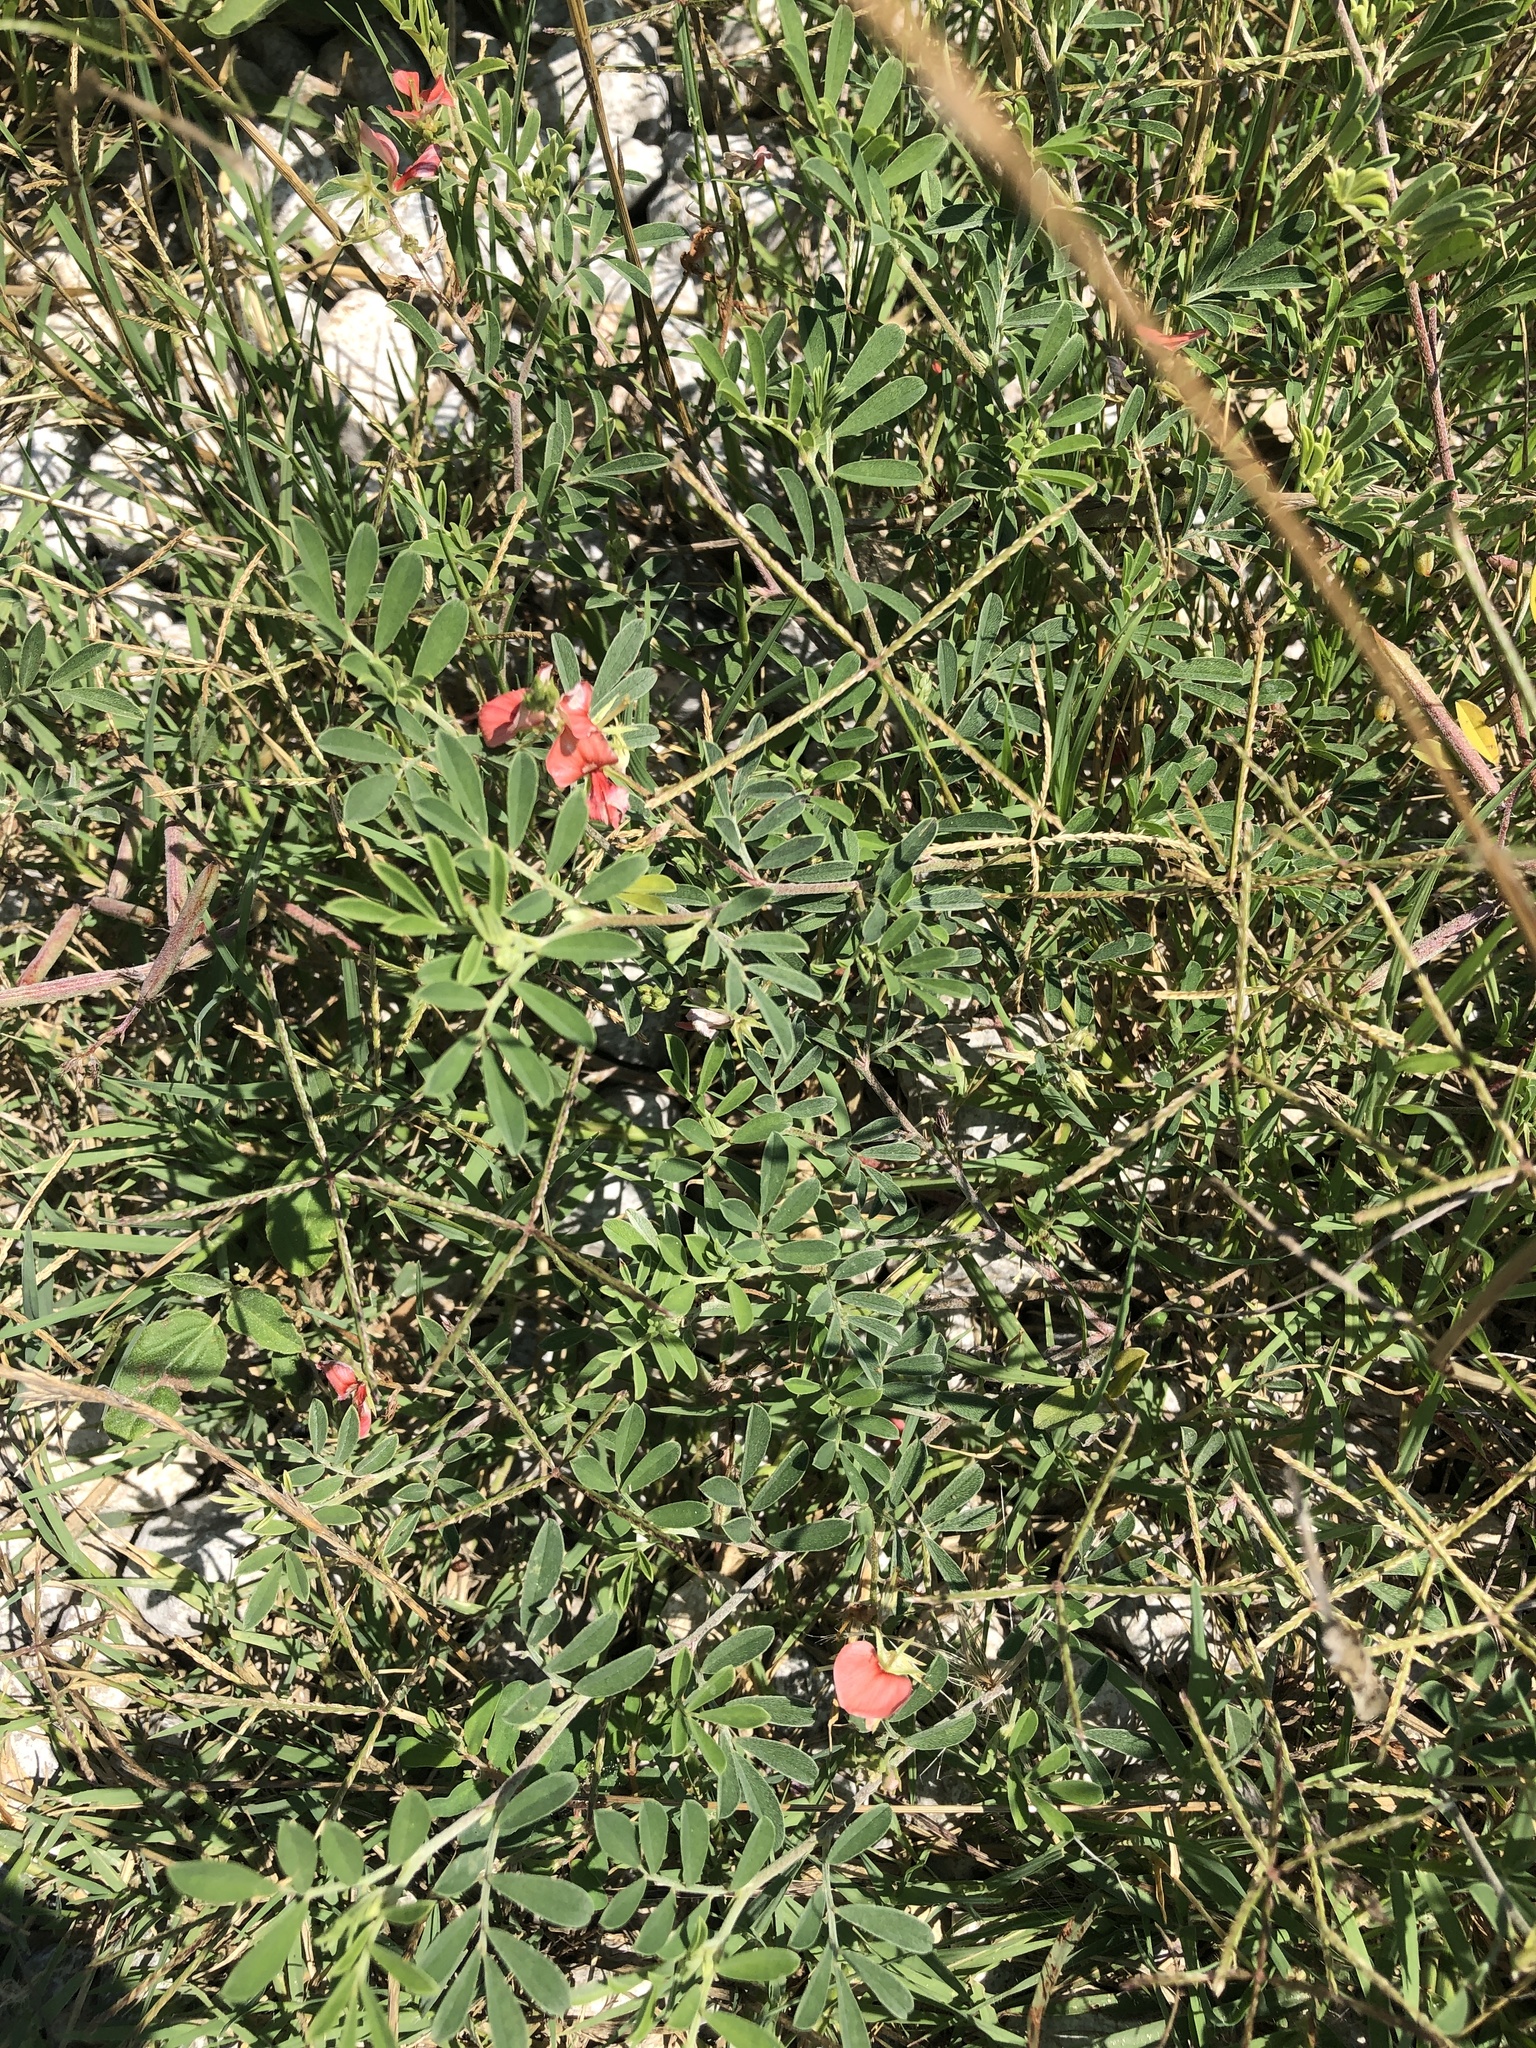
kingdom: Plantae
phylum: Tracheophyta
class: Magnoliopsida
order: Fabales
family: Fabaceae
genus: Indigofera
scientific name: Indigofera miniata
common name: Coast indigo
